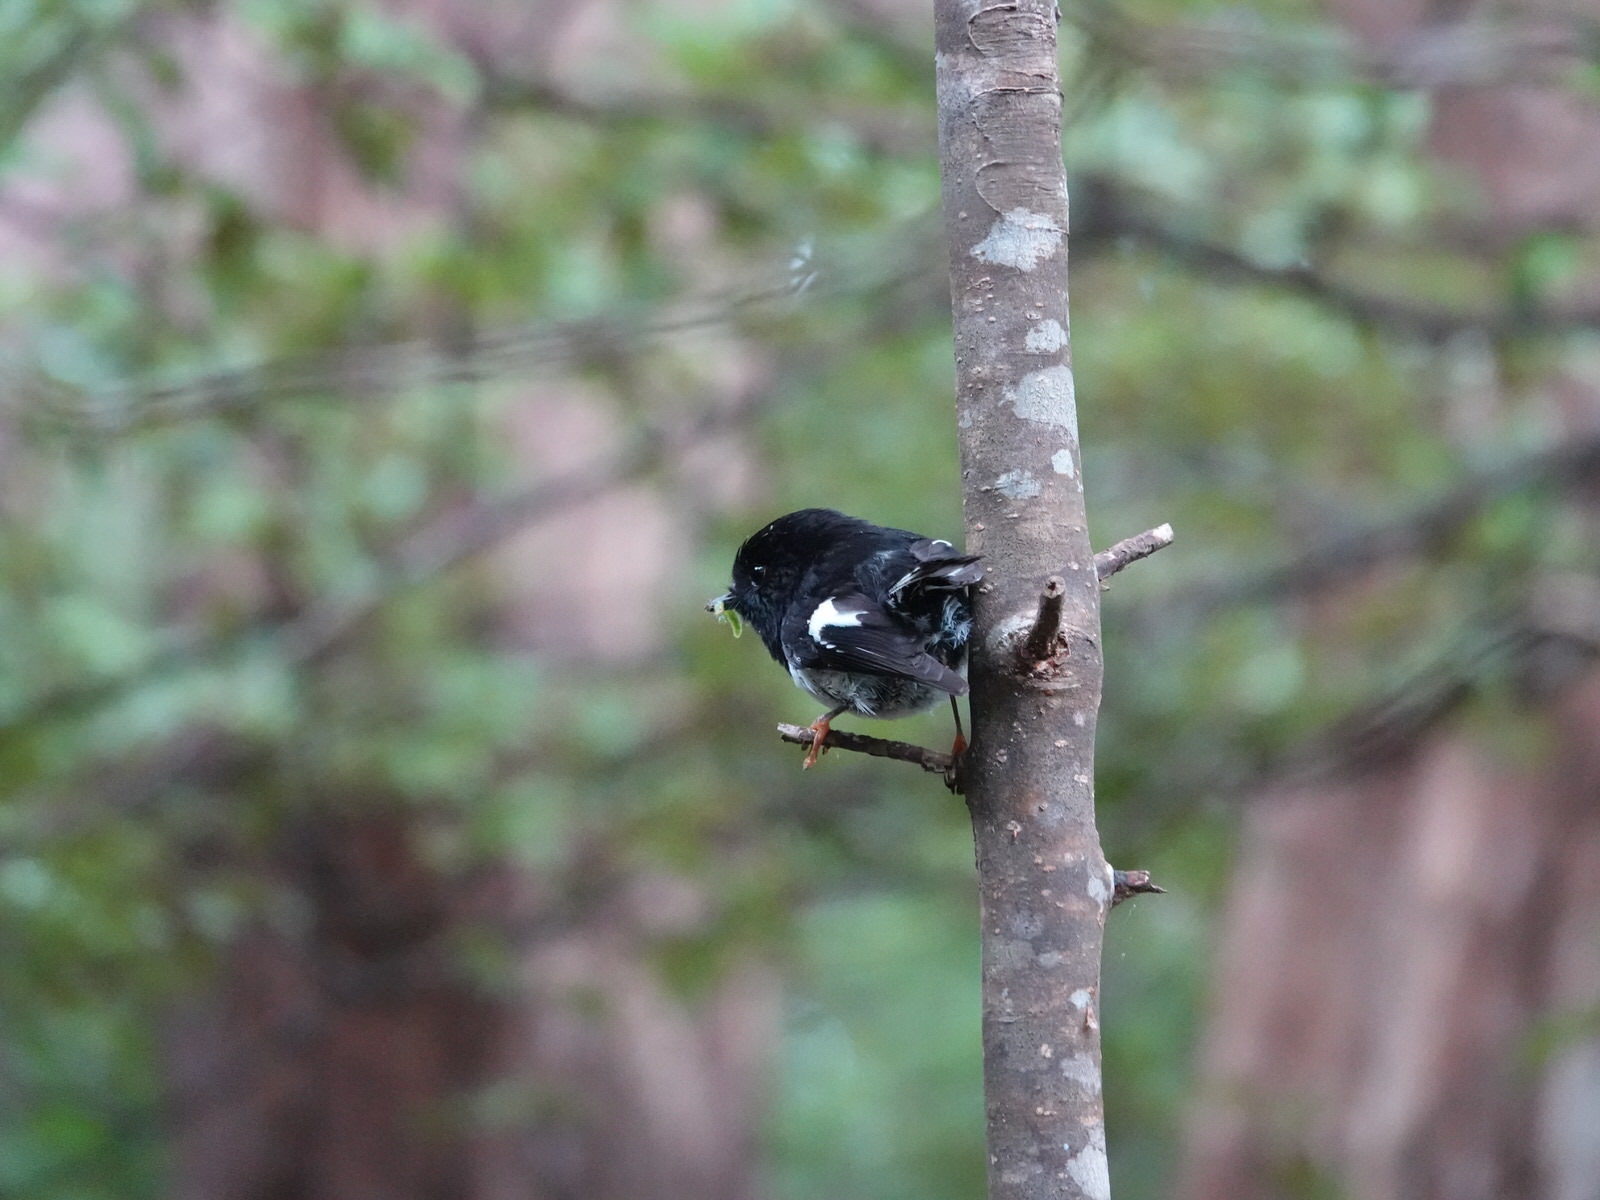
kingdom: Animalia
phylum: Chordata
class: Aves
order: Passeriformes
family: Petroicidae
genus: Petroica
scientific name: Petroica macrocephala
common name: Tomtit
